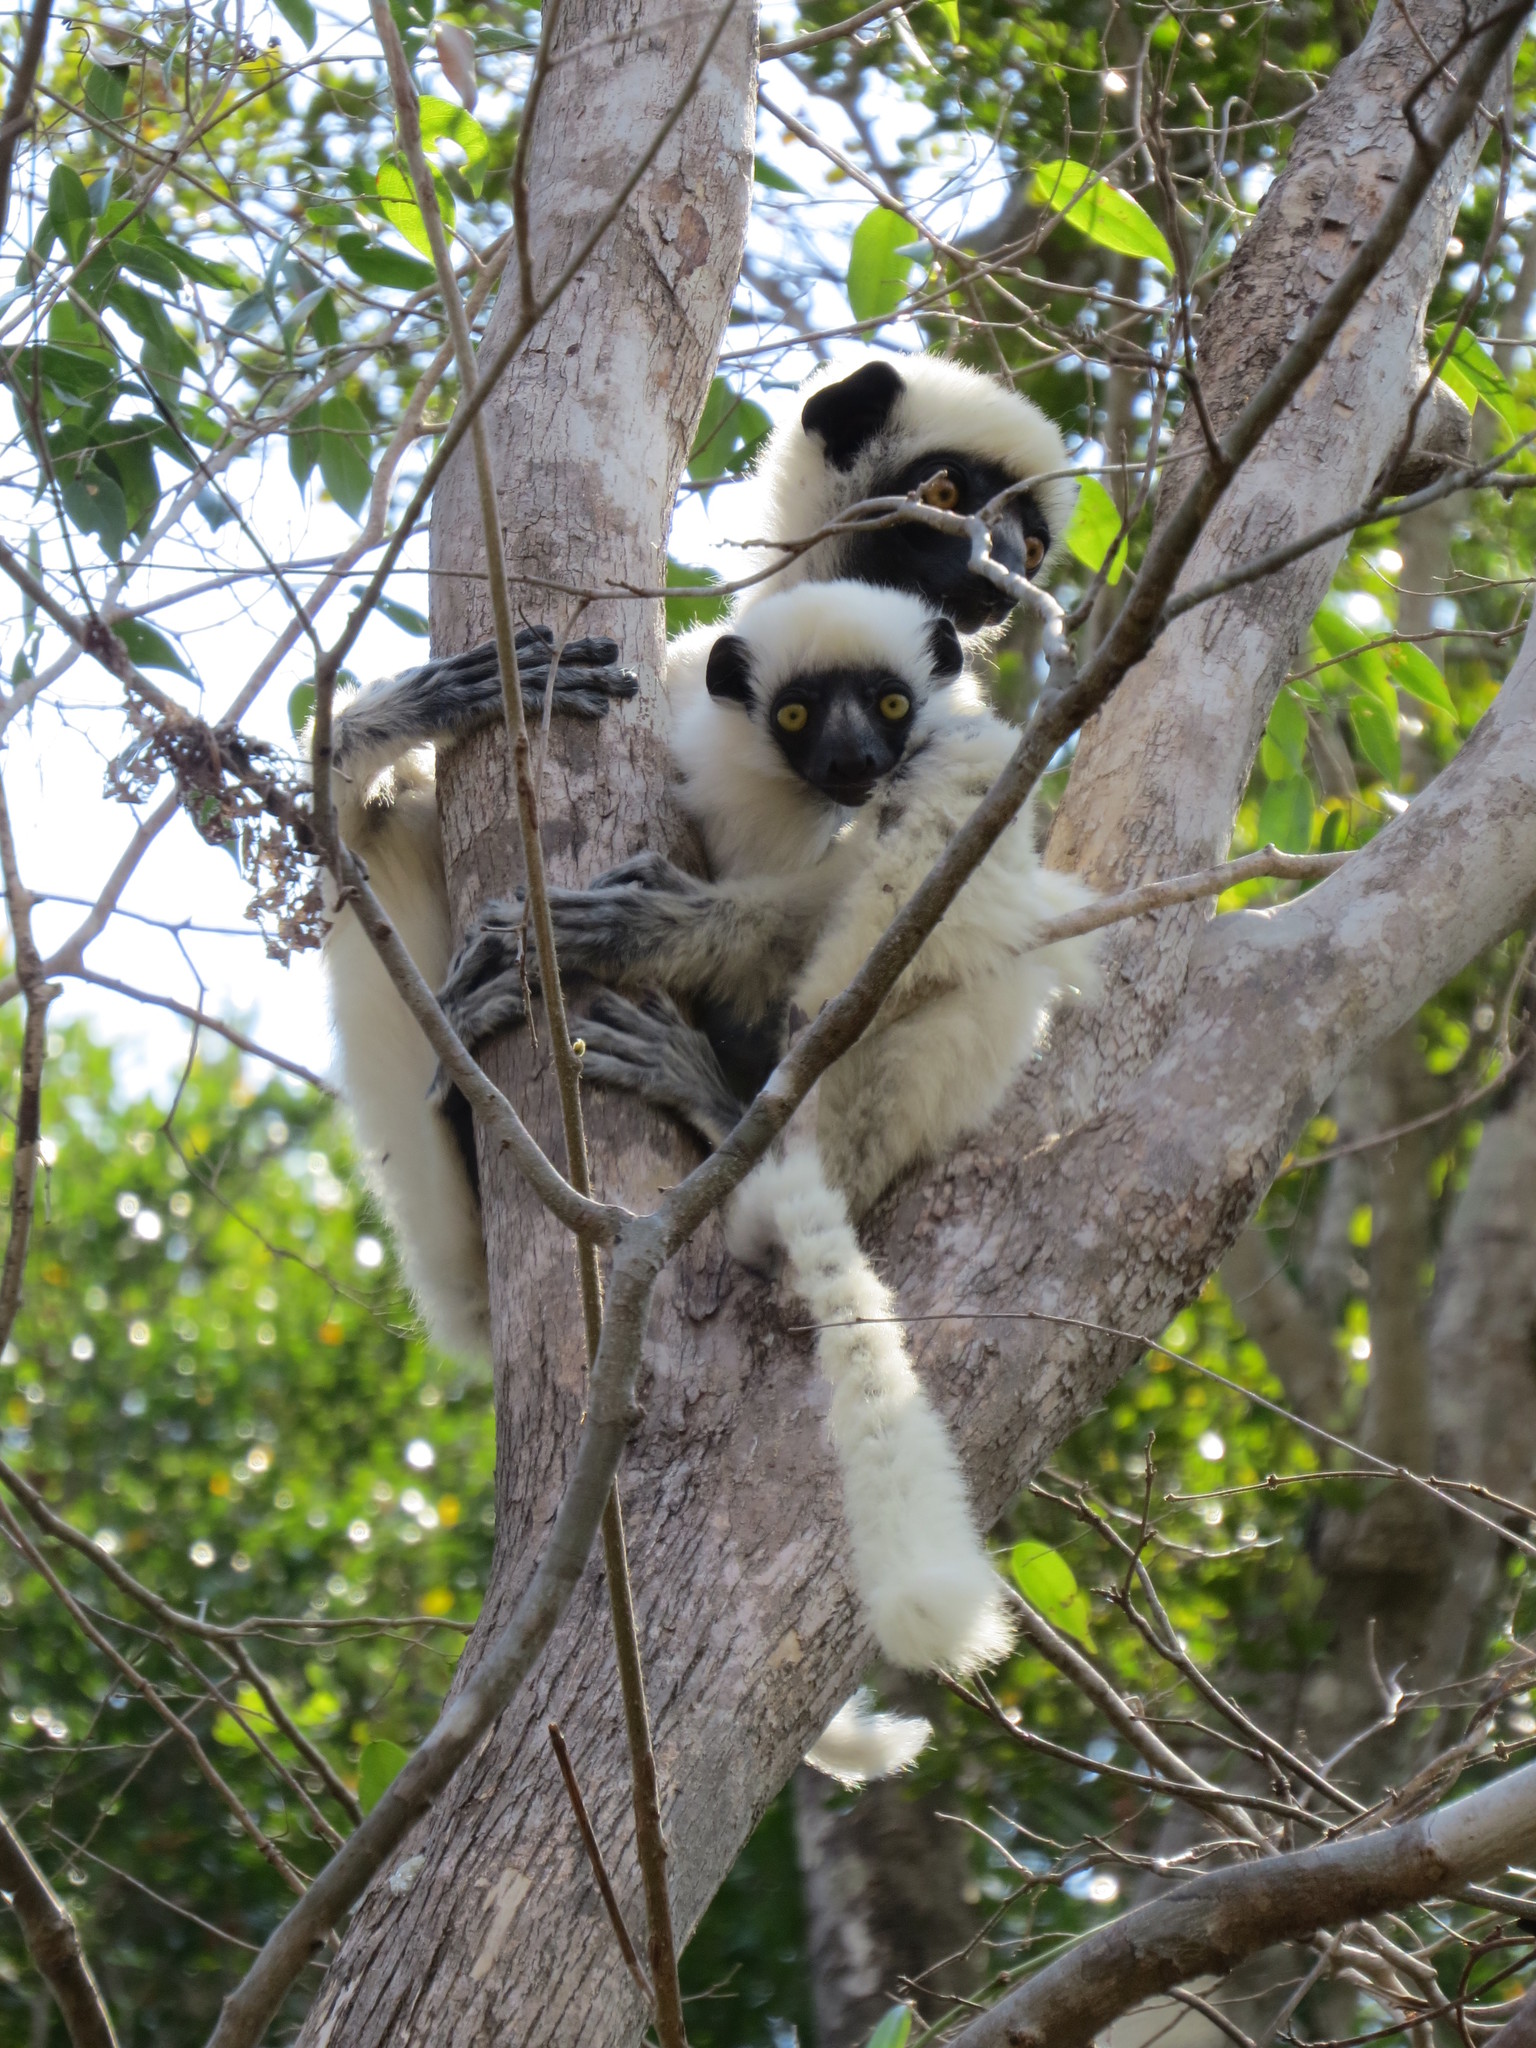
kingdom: Animalia
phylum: Chordata
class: Mammalia
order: Primates
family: Indriidae
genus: Propithecus
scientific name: Propithecus deckenii
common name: Decken's sifaka
